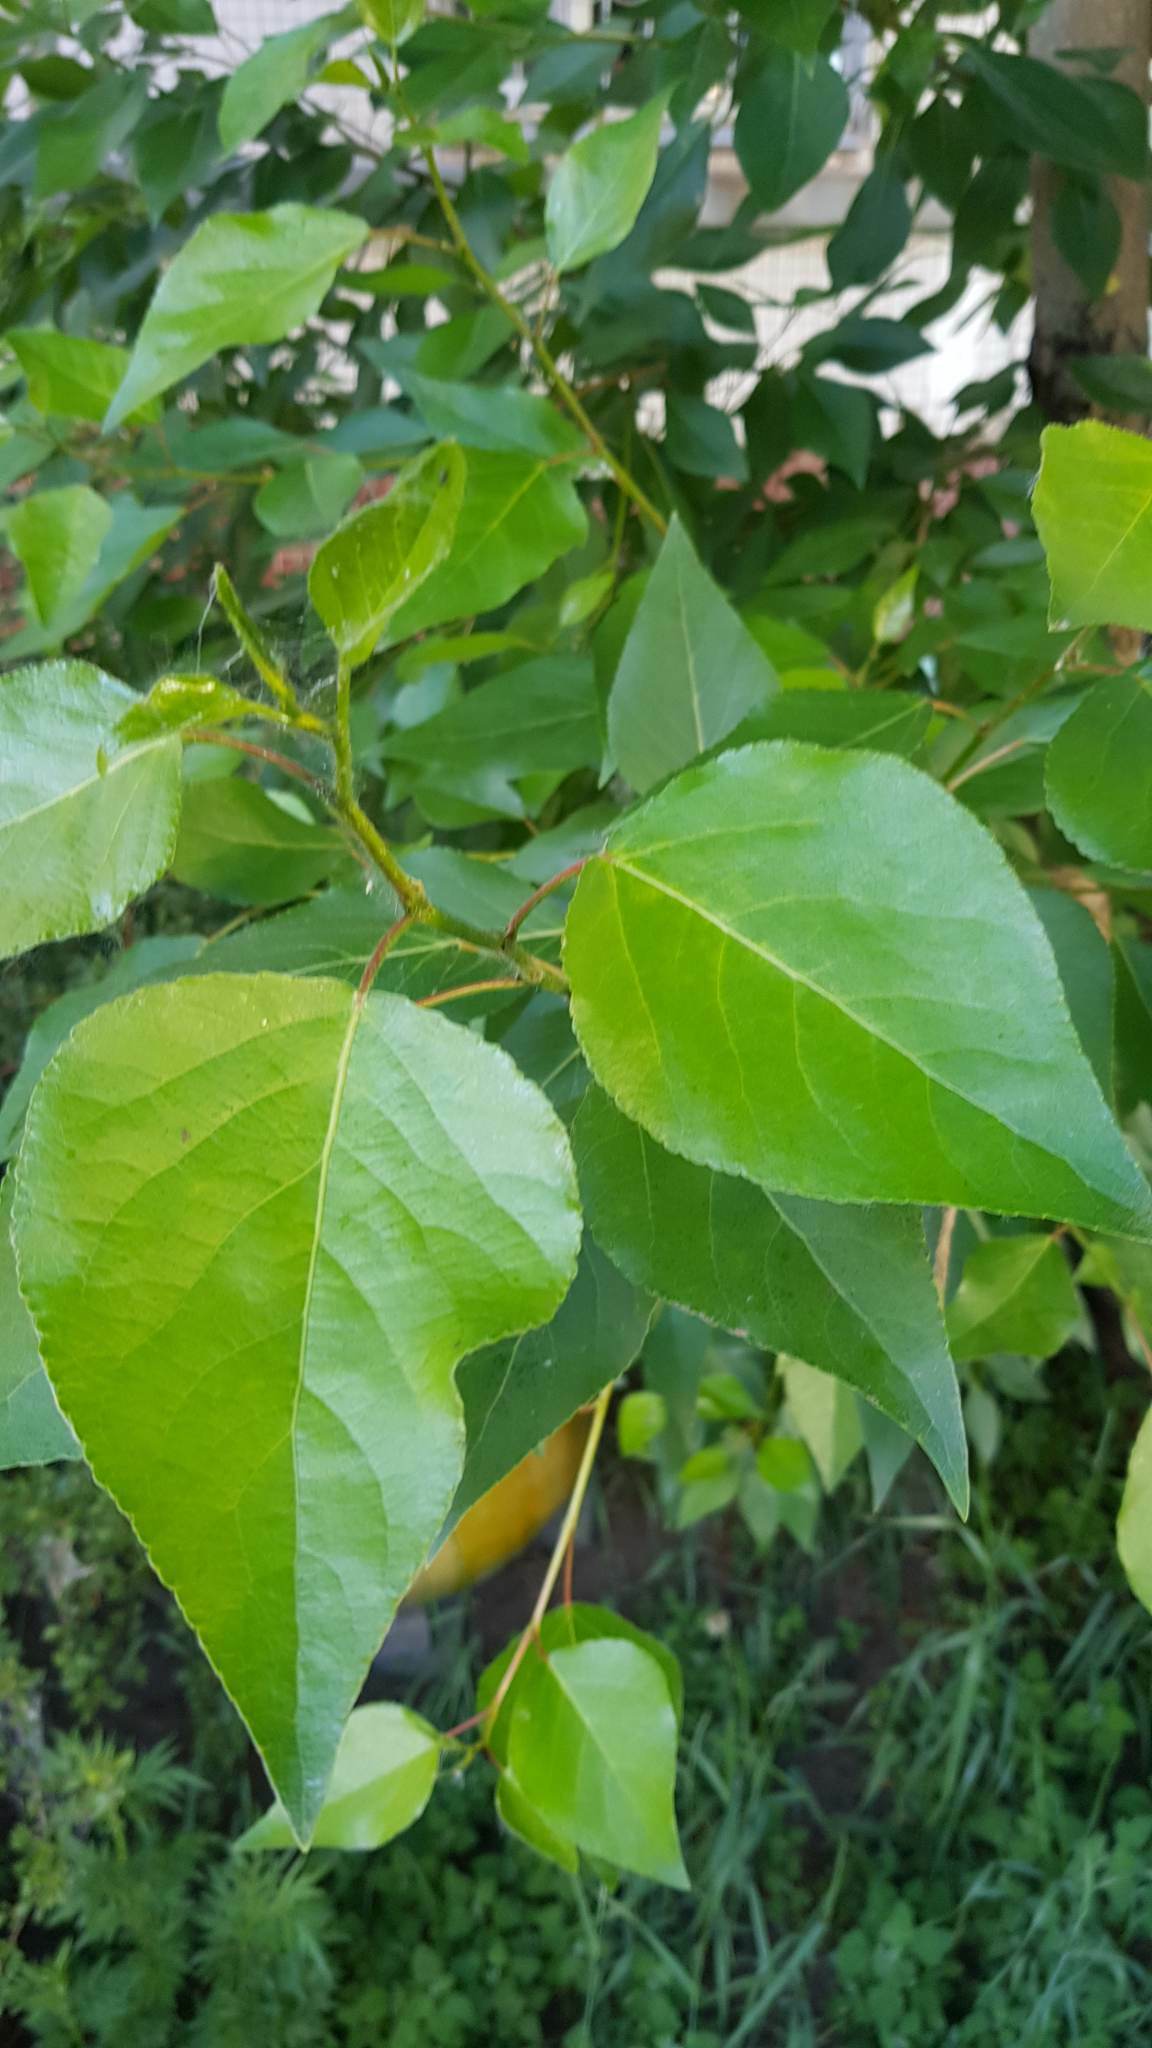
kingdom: Plantae
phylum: Tracheophyta
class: Magnoliopsida
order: Malpighiales
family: Salicaceae
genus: Populus
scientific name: Populus laurifolia
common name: Laurel-leaf poplar
